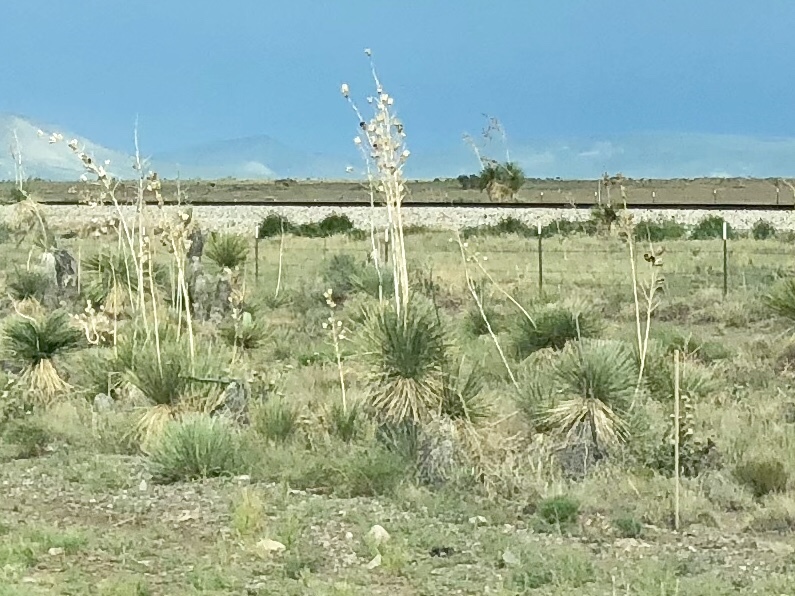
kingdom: Plantae
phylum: Tracheophyta
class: Liliopsida
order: Asparagales
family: Asparagaceae
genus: Yucca
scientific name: Yucca elata
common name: Palmella
